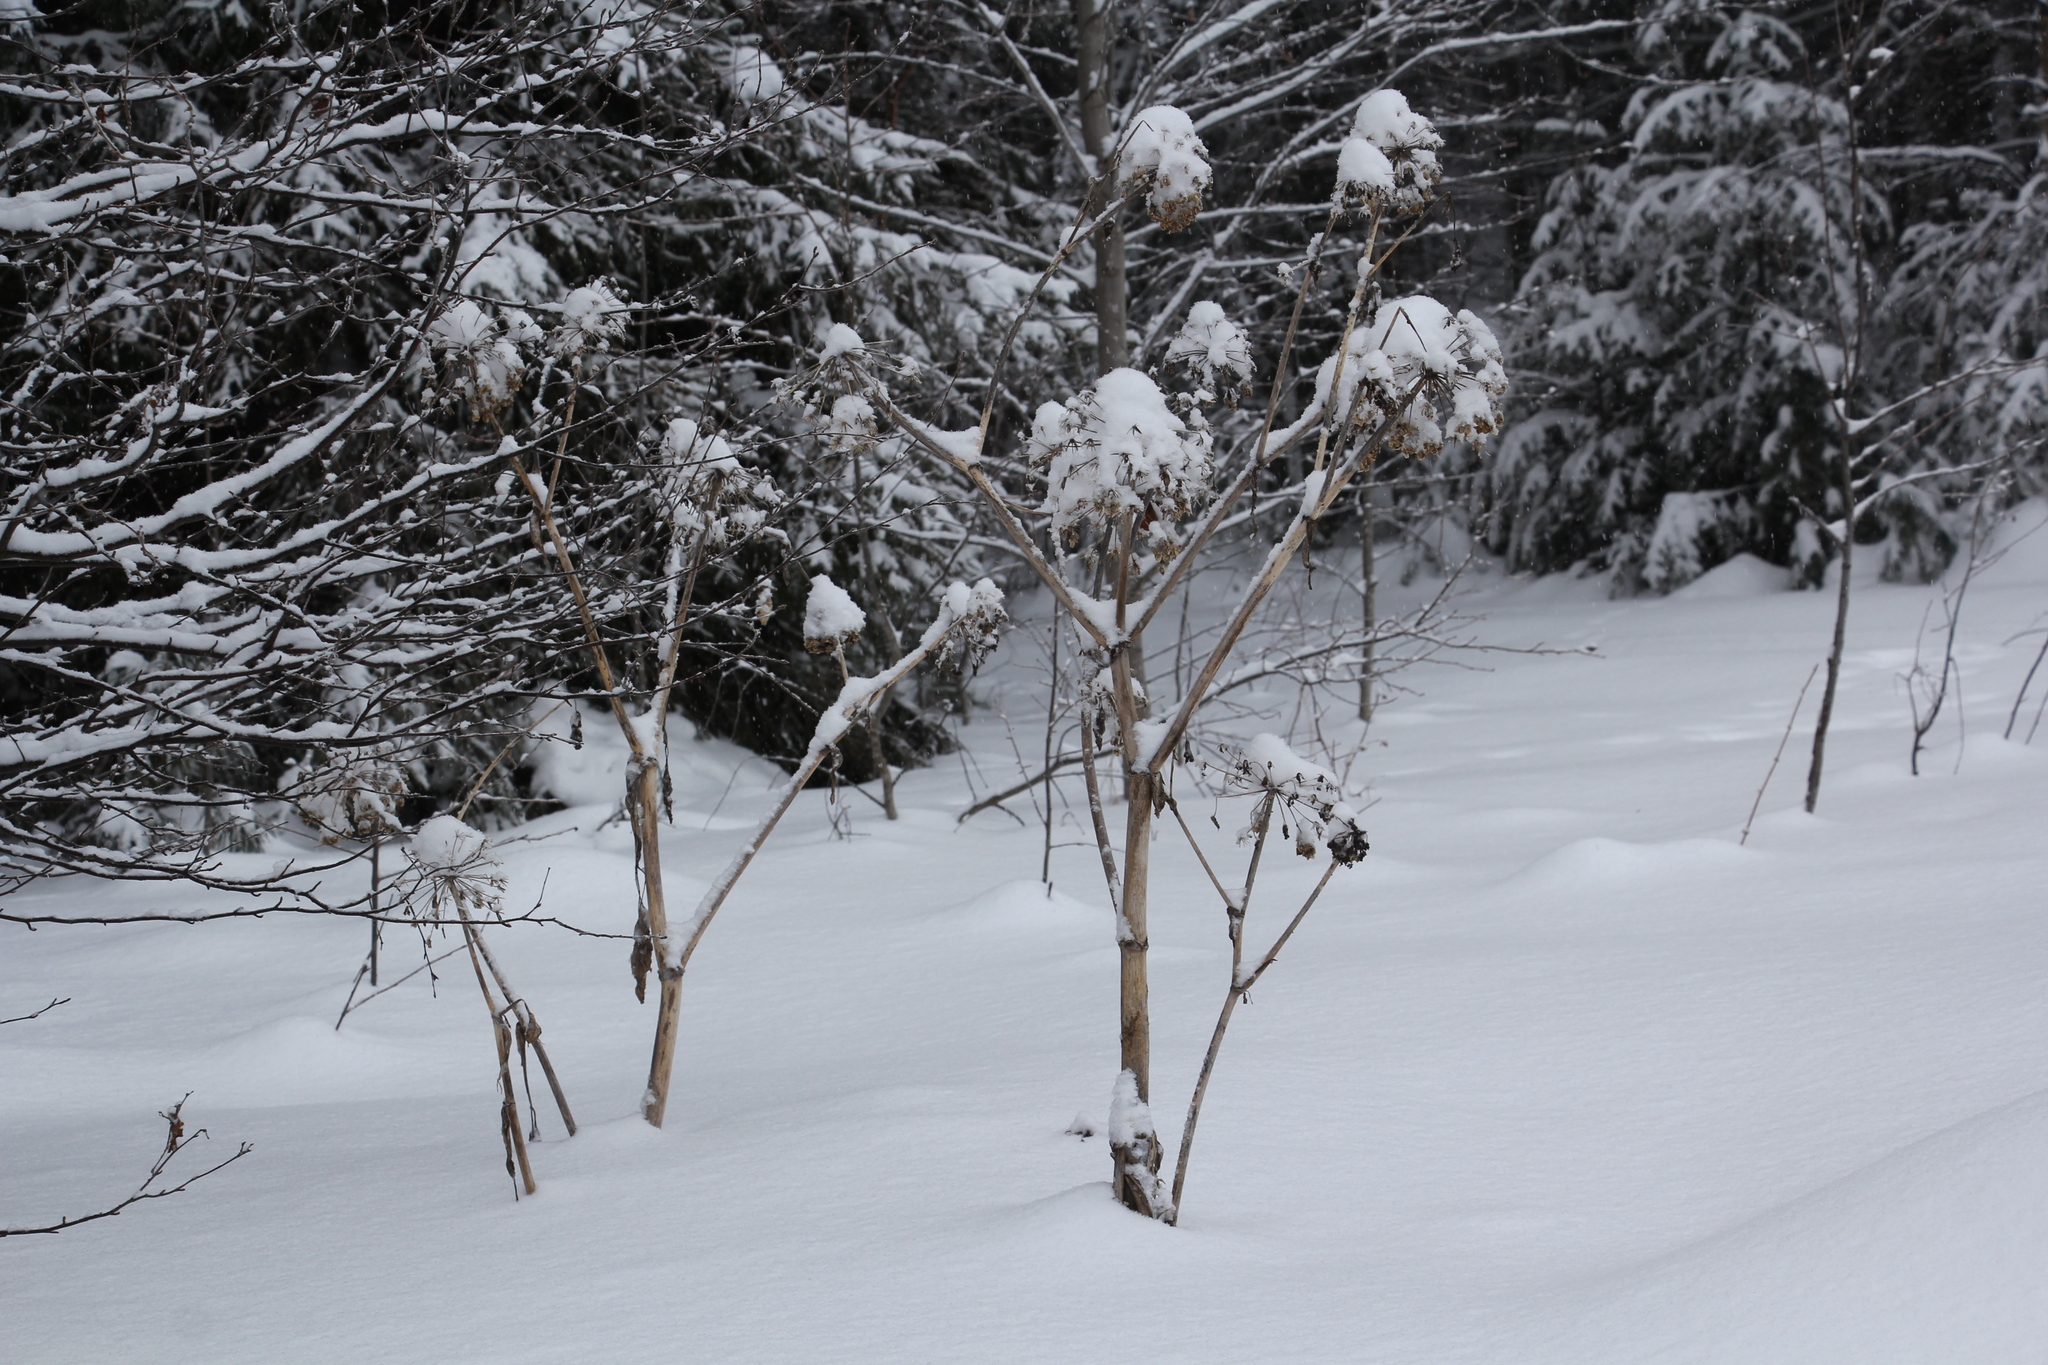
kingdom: Plantae
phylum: Tracheophyta
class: Magnoliopsida
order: Apiales
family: Apiaceae
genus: Angelica
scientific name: Angelica decurrens
